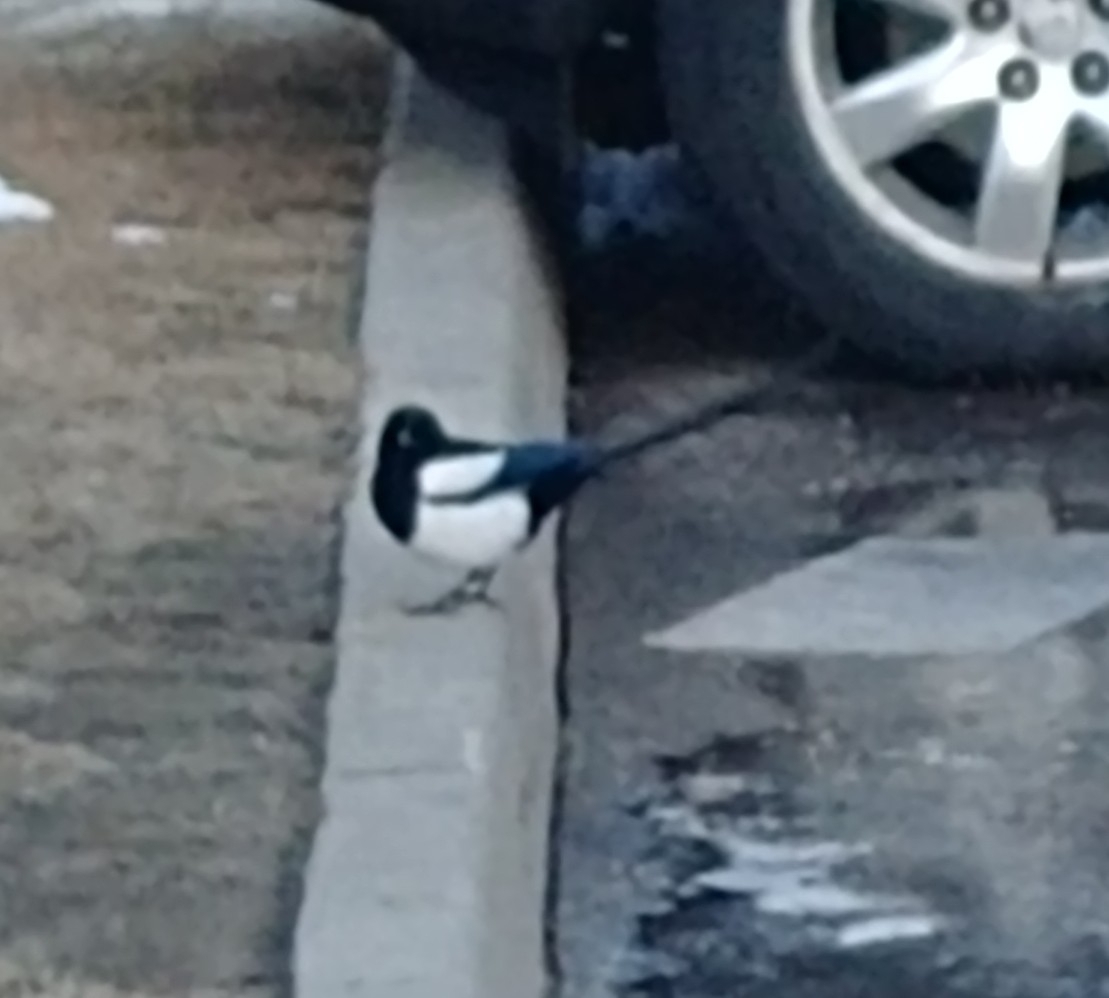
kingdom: Animalia
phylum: Chordata
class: Aves
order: Passeriformes
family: Corvidae
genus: Pica
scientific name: Pica hudsonia
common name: Black-billed magpie
